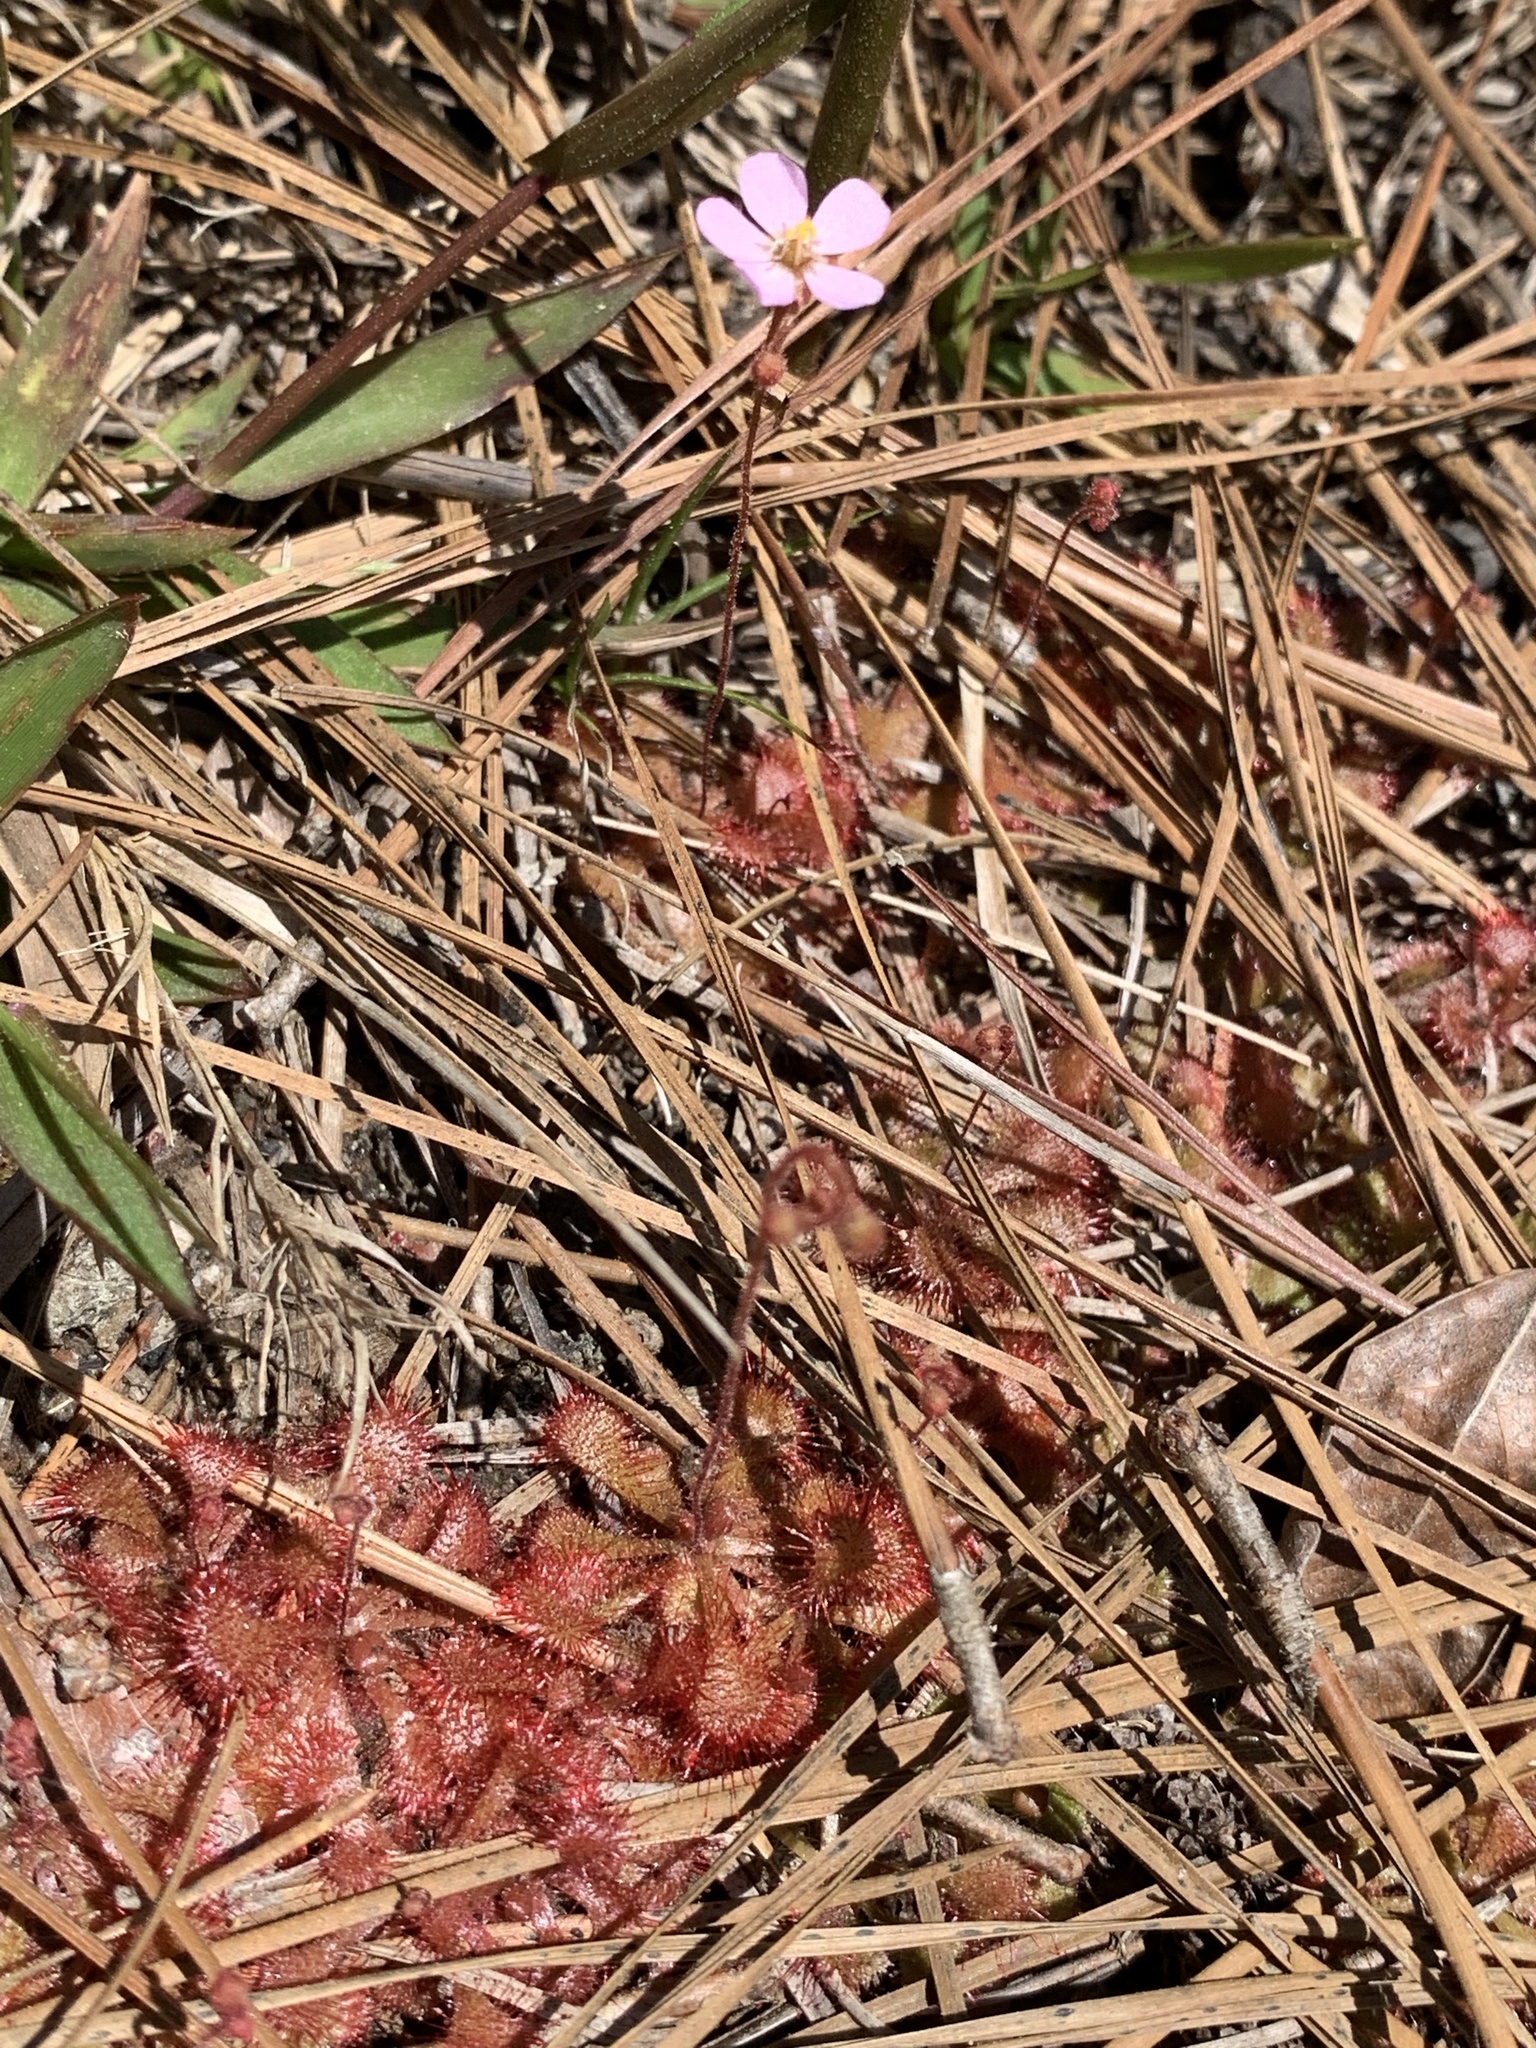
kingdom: Plantae
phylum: Tracheophyta
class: Magnoliopsida
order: Caryophyllales
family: Droseraceae
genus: Drosera
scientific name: Drosera brevifolia
